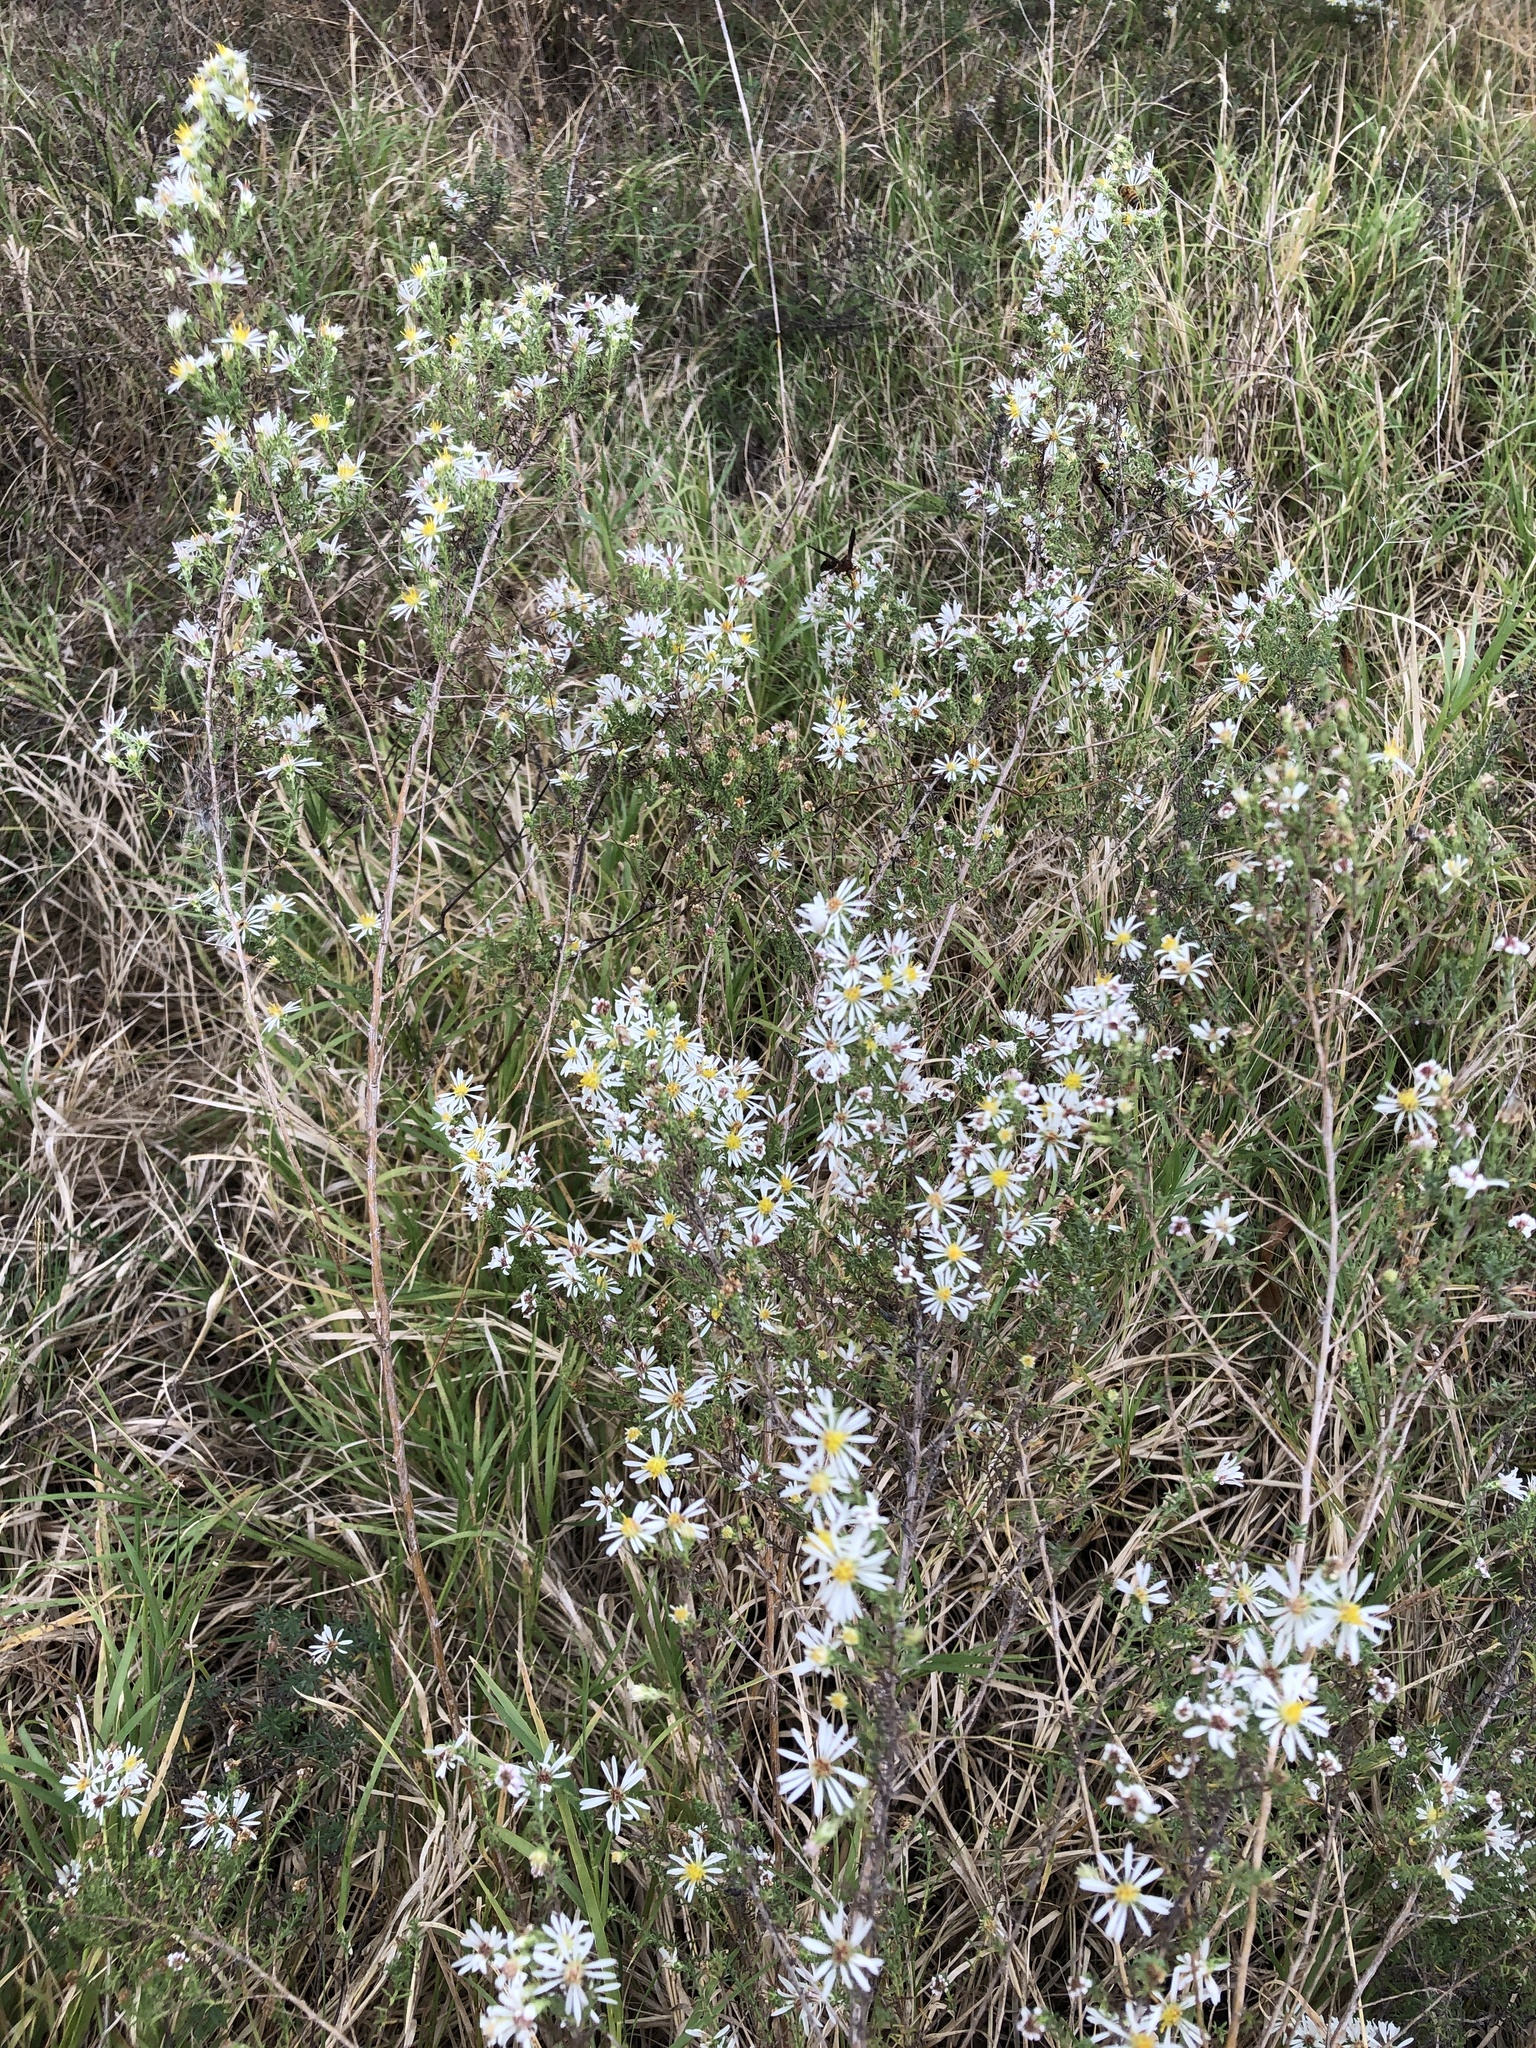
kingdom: Plantae
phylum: Tracheophyta
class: Magnoliopsida
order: Asterales
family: Asteraceae
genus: Symphyotrichum
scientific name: Symphyotrichum ericoides
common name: Heath aster
